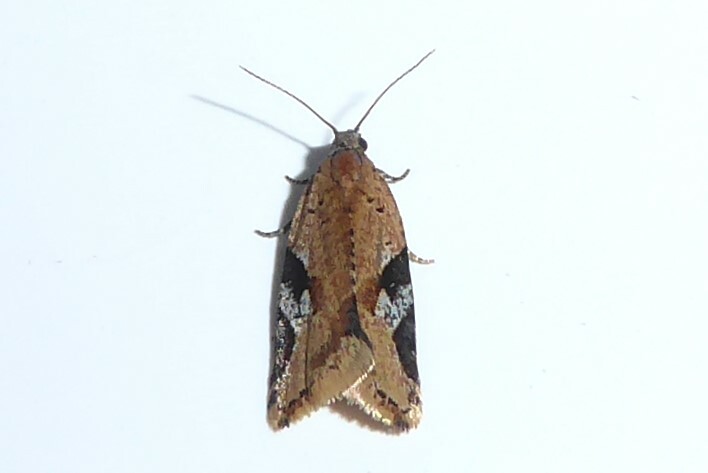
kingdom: Animalia
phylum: Arthropoda
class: Insecta
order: Lepidoptera
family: Tortricidae
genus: Capua
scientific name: Capua semiferana
